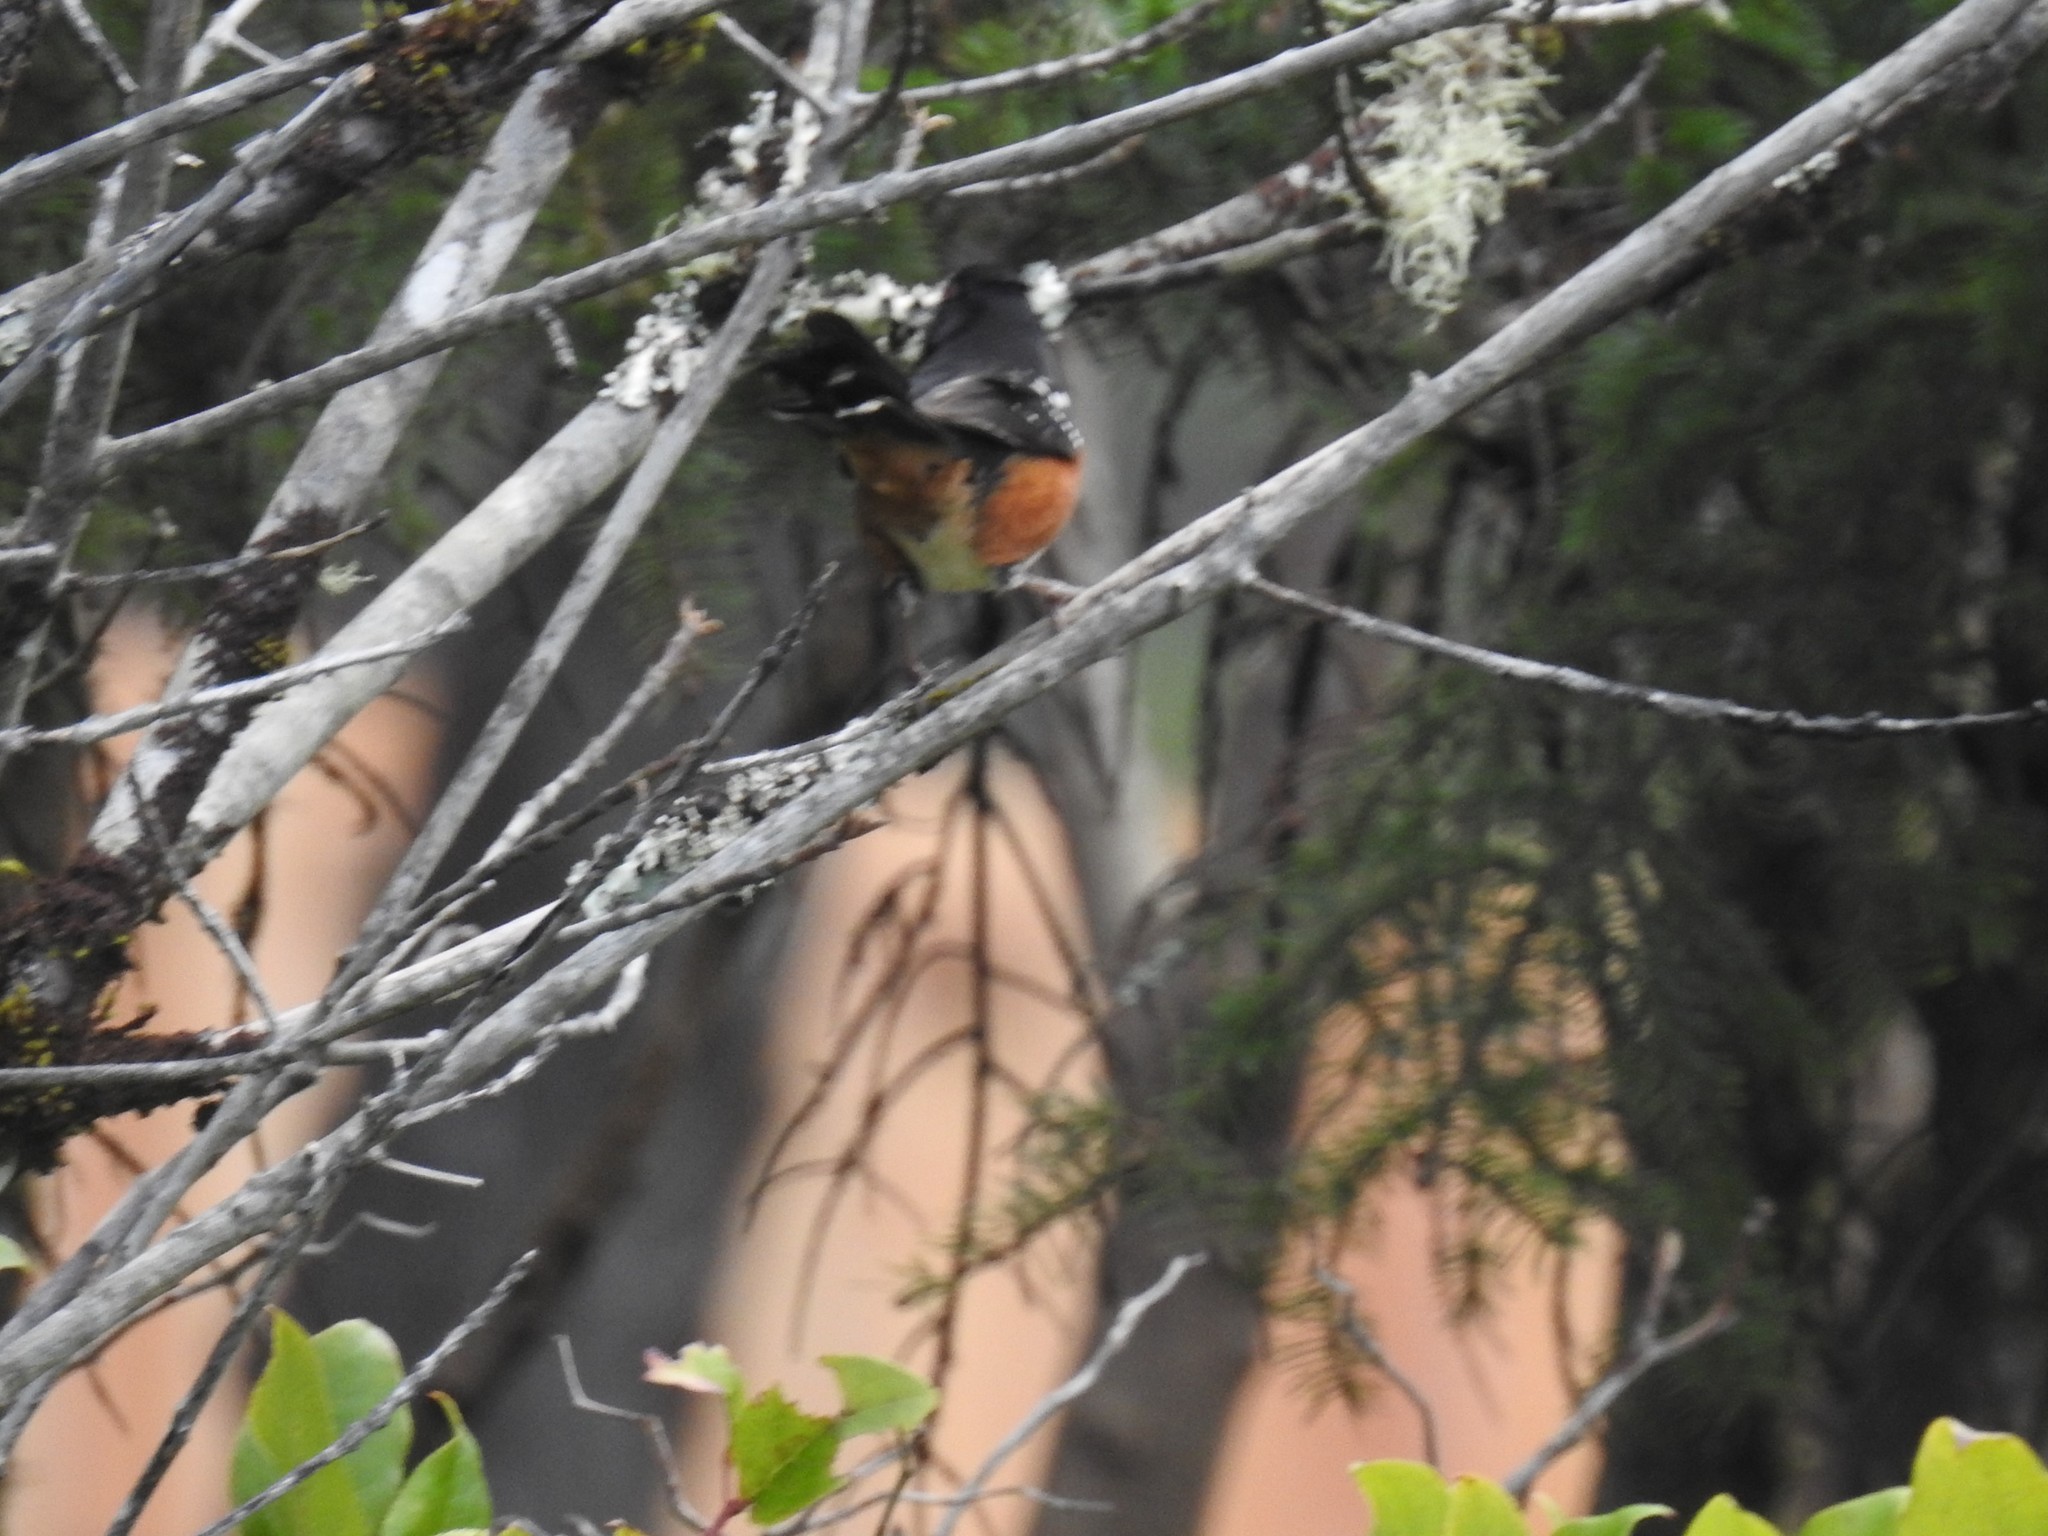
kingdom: Animalia
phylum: Chordata
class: Aves
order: Passeriformes
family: Passerellidae
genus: Pipilo
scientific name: Pipilo maculatus
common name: Spotted towhee
